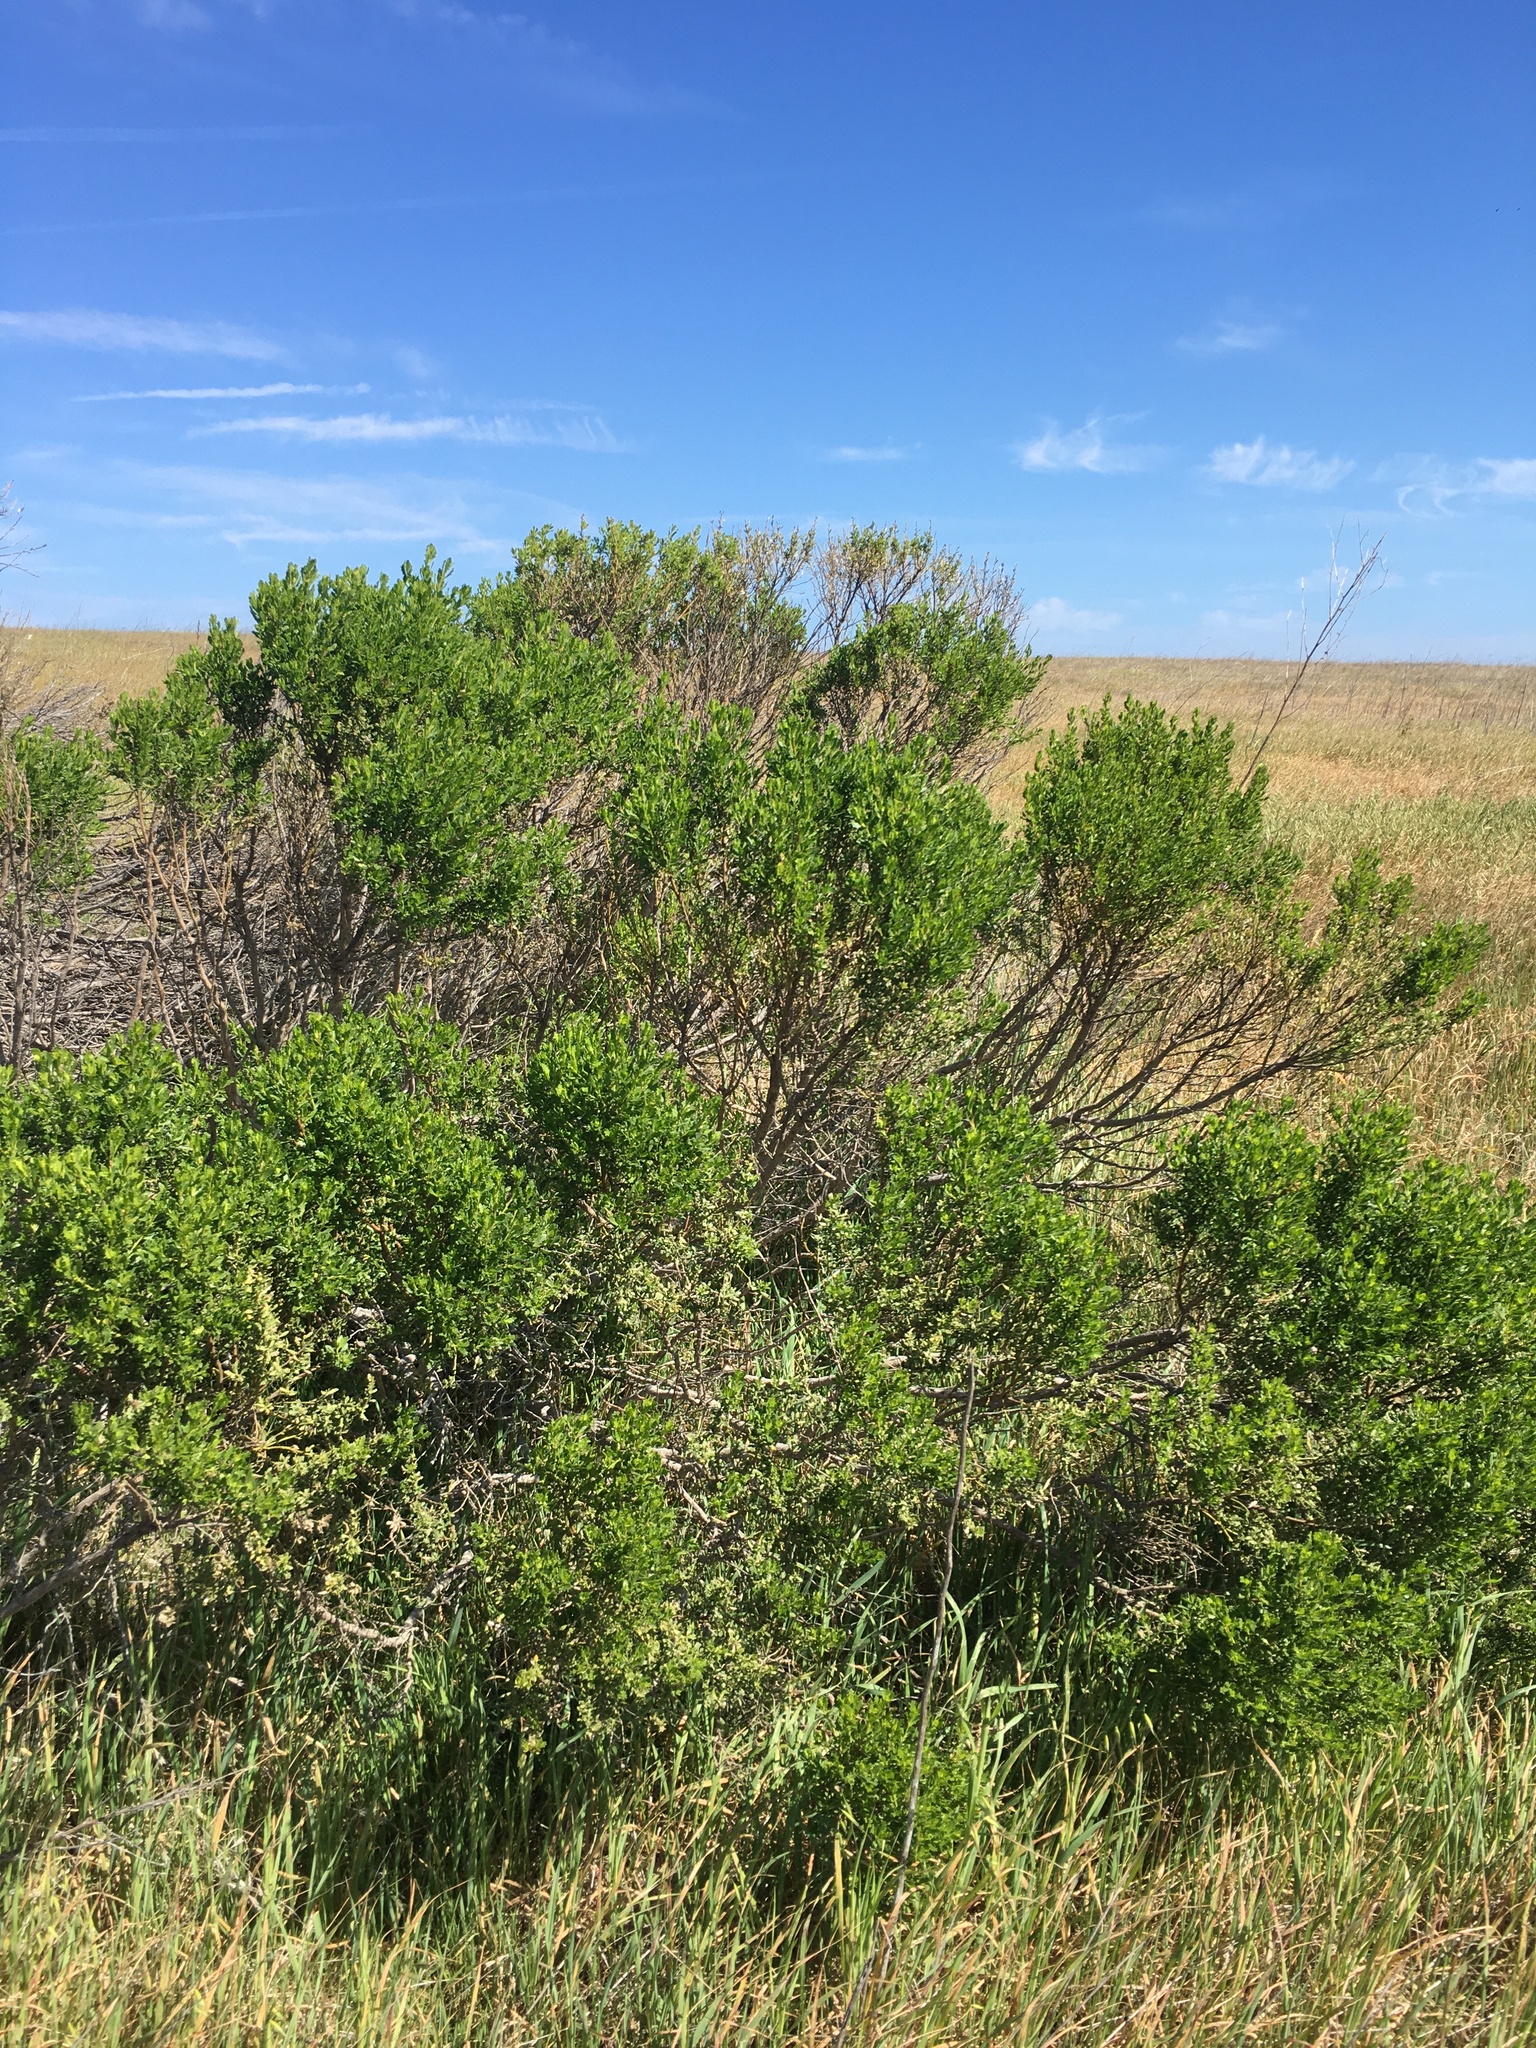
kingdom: Plantae
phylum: Tracheophyta
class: Magnoliopsida
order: Asterales
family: Asteraceae
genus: Baccharis
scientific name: Baccharis pilularis
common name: Coyotebrush
